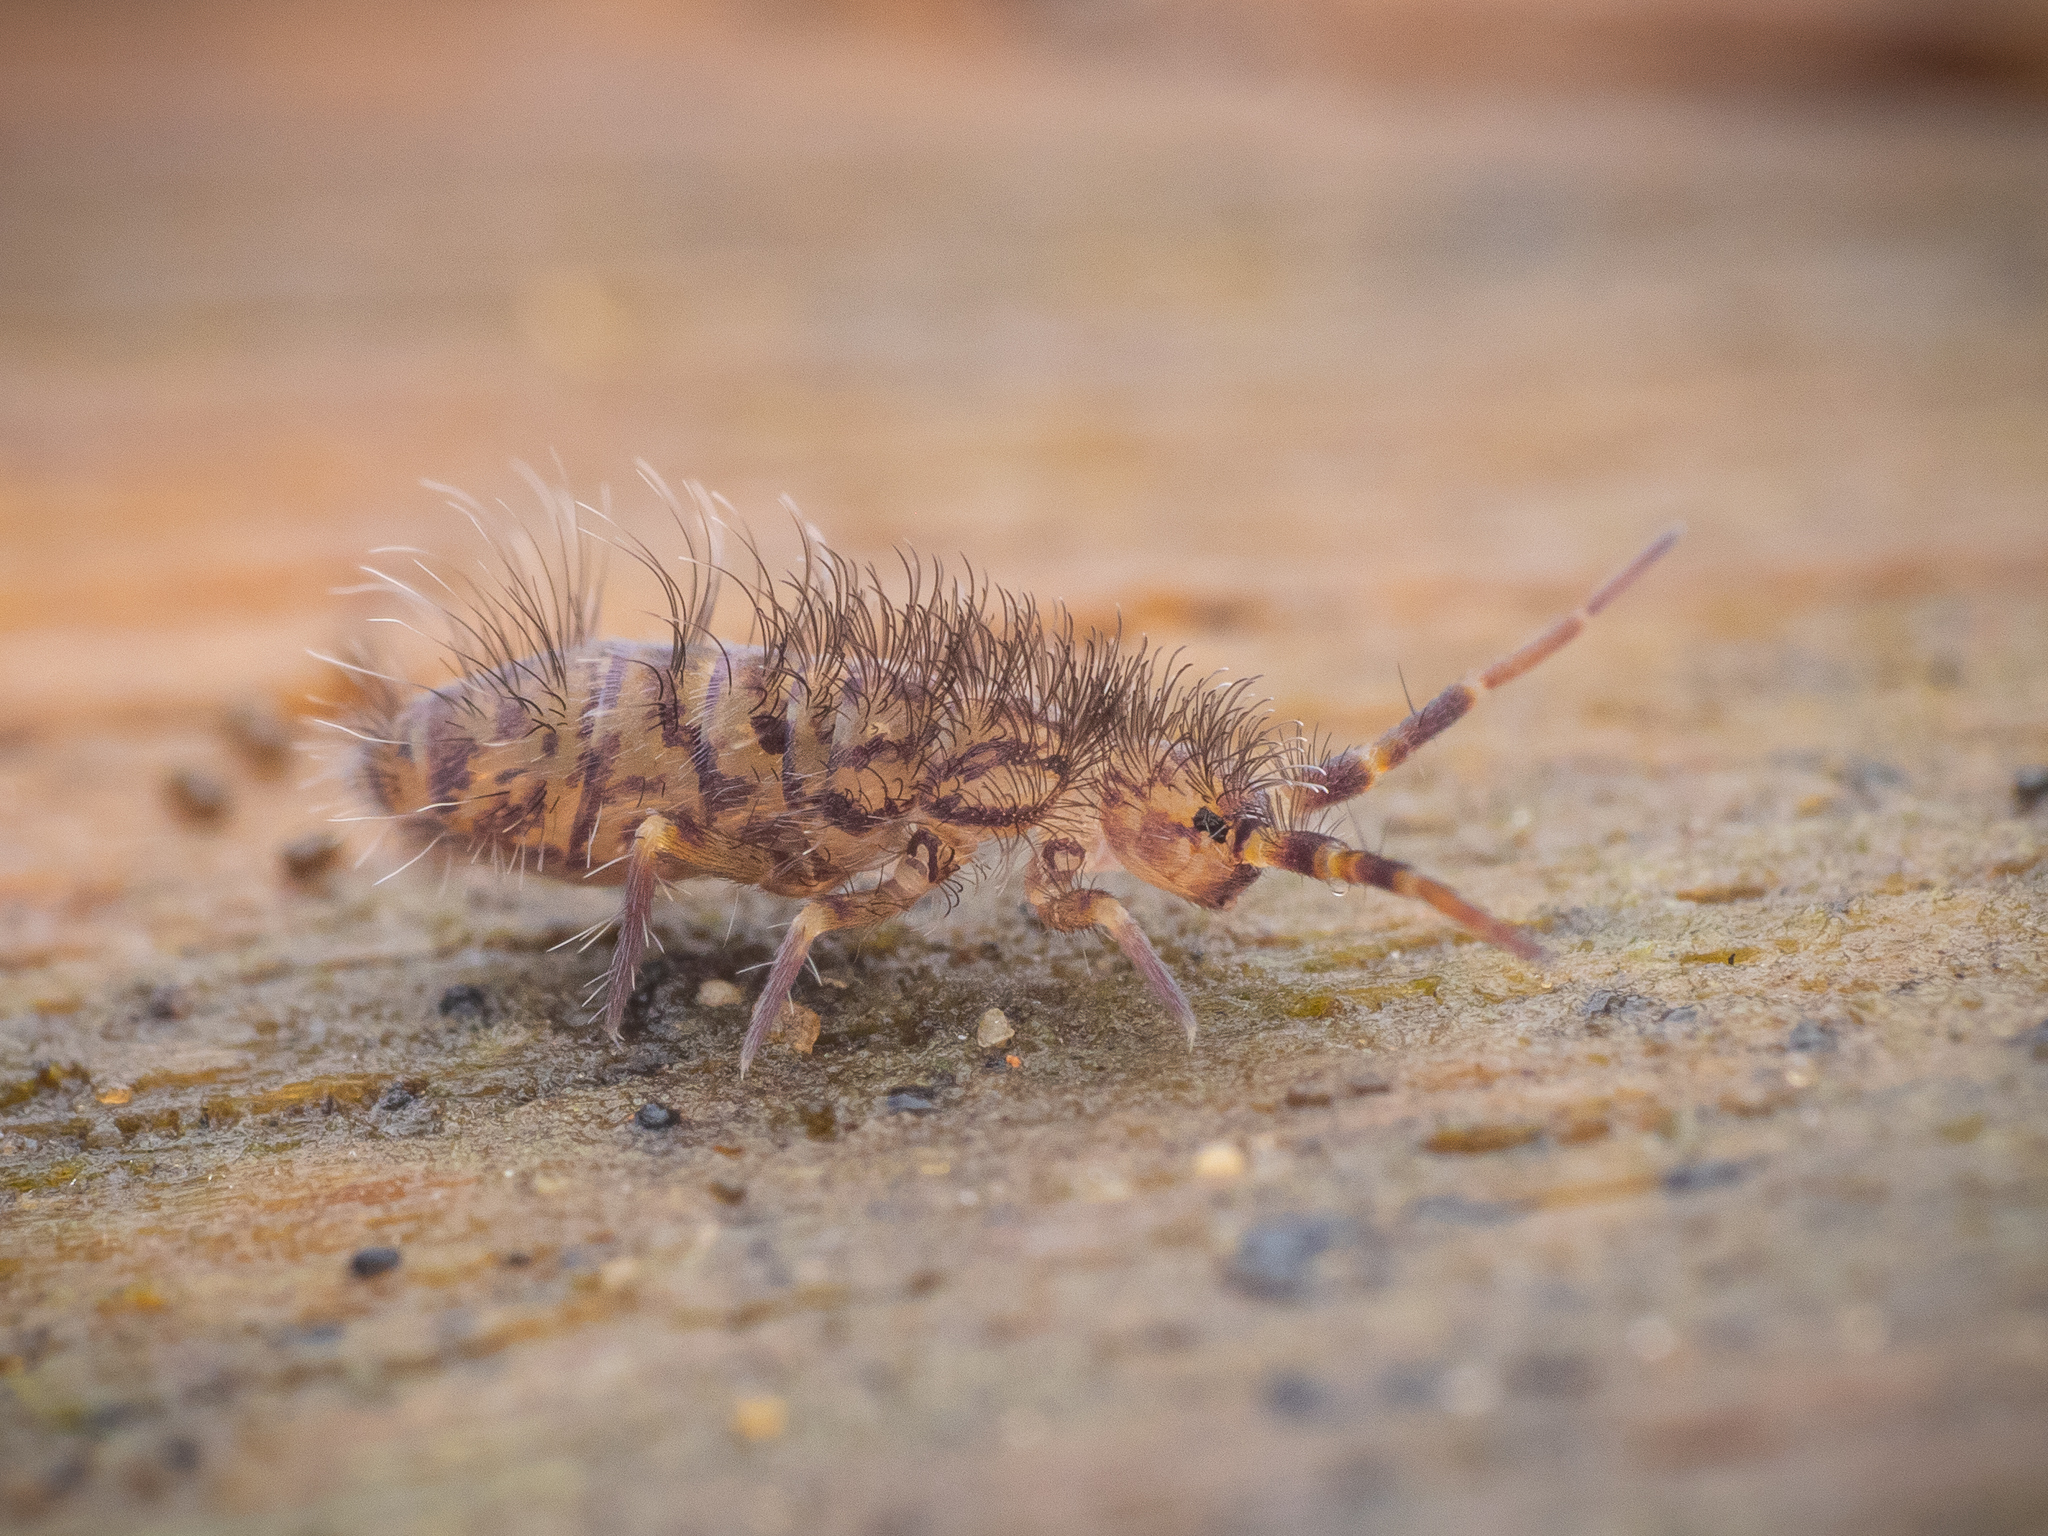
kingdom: Animalia
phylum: Arthropoda
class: Collembola
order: Entomobryomorpha
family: Orchesellidae
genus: Orchesella
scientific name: Orchesella villosa
